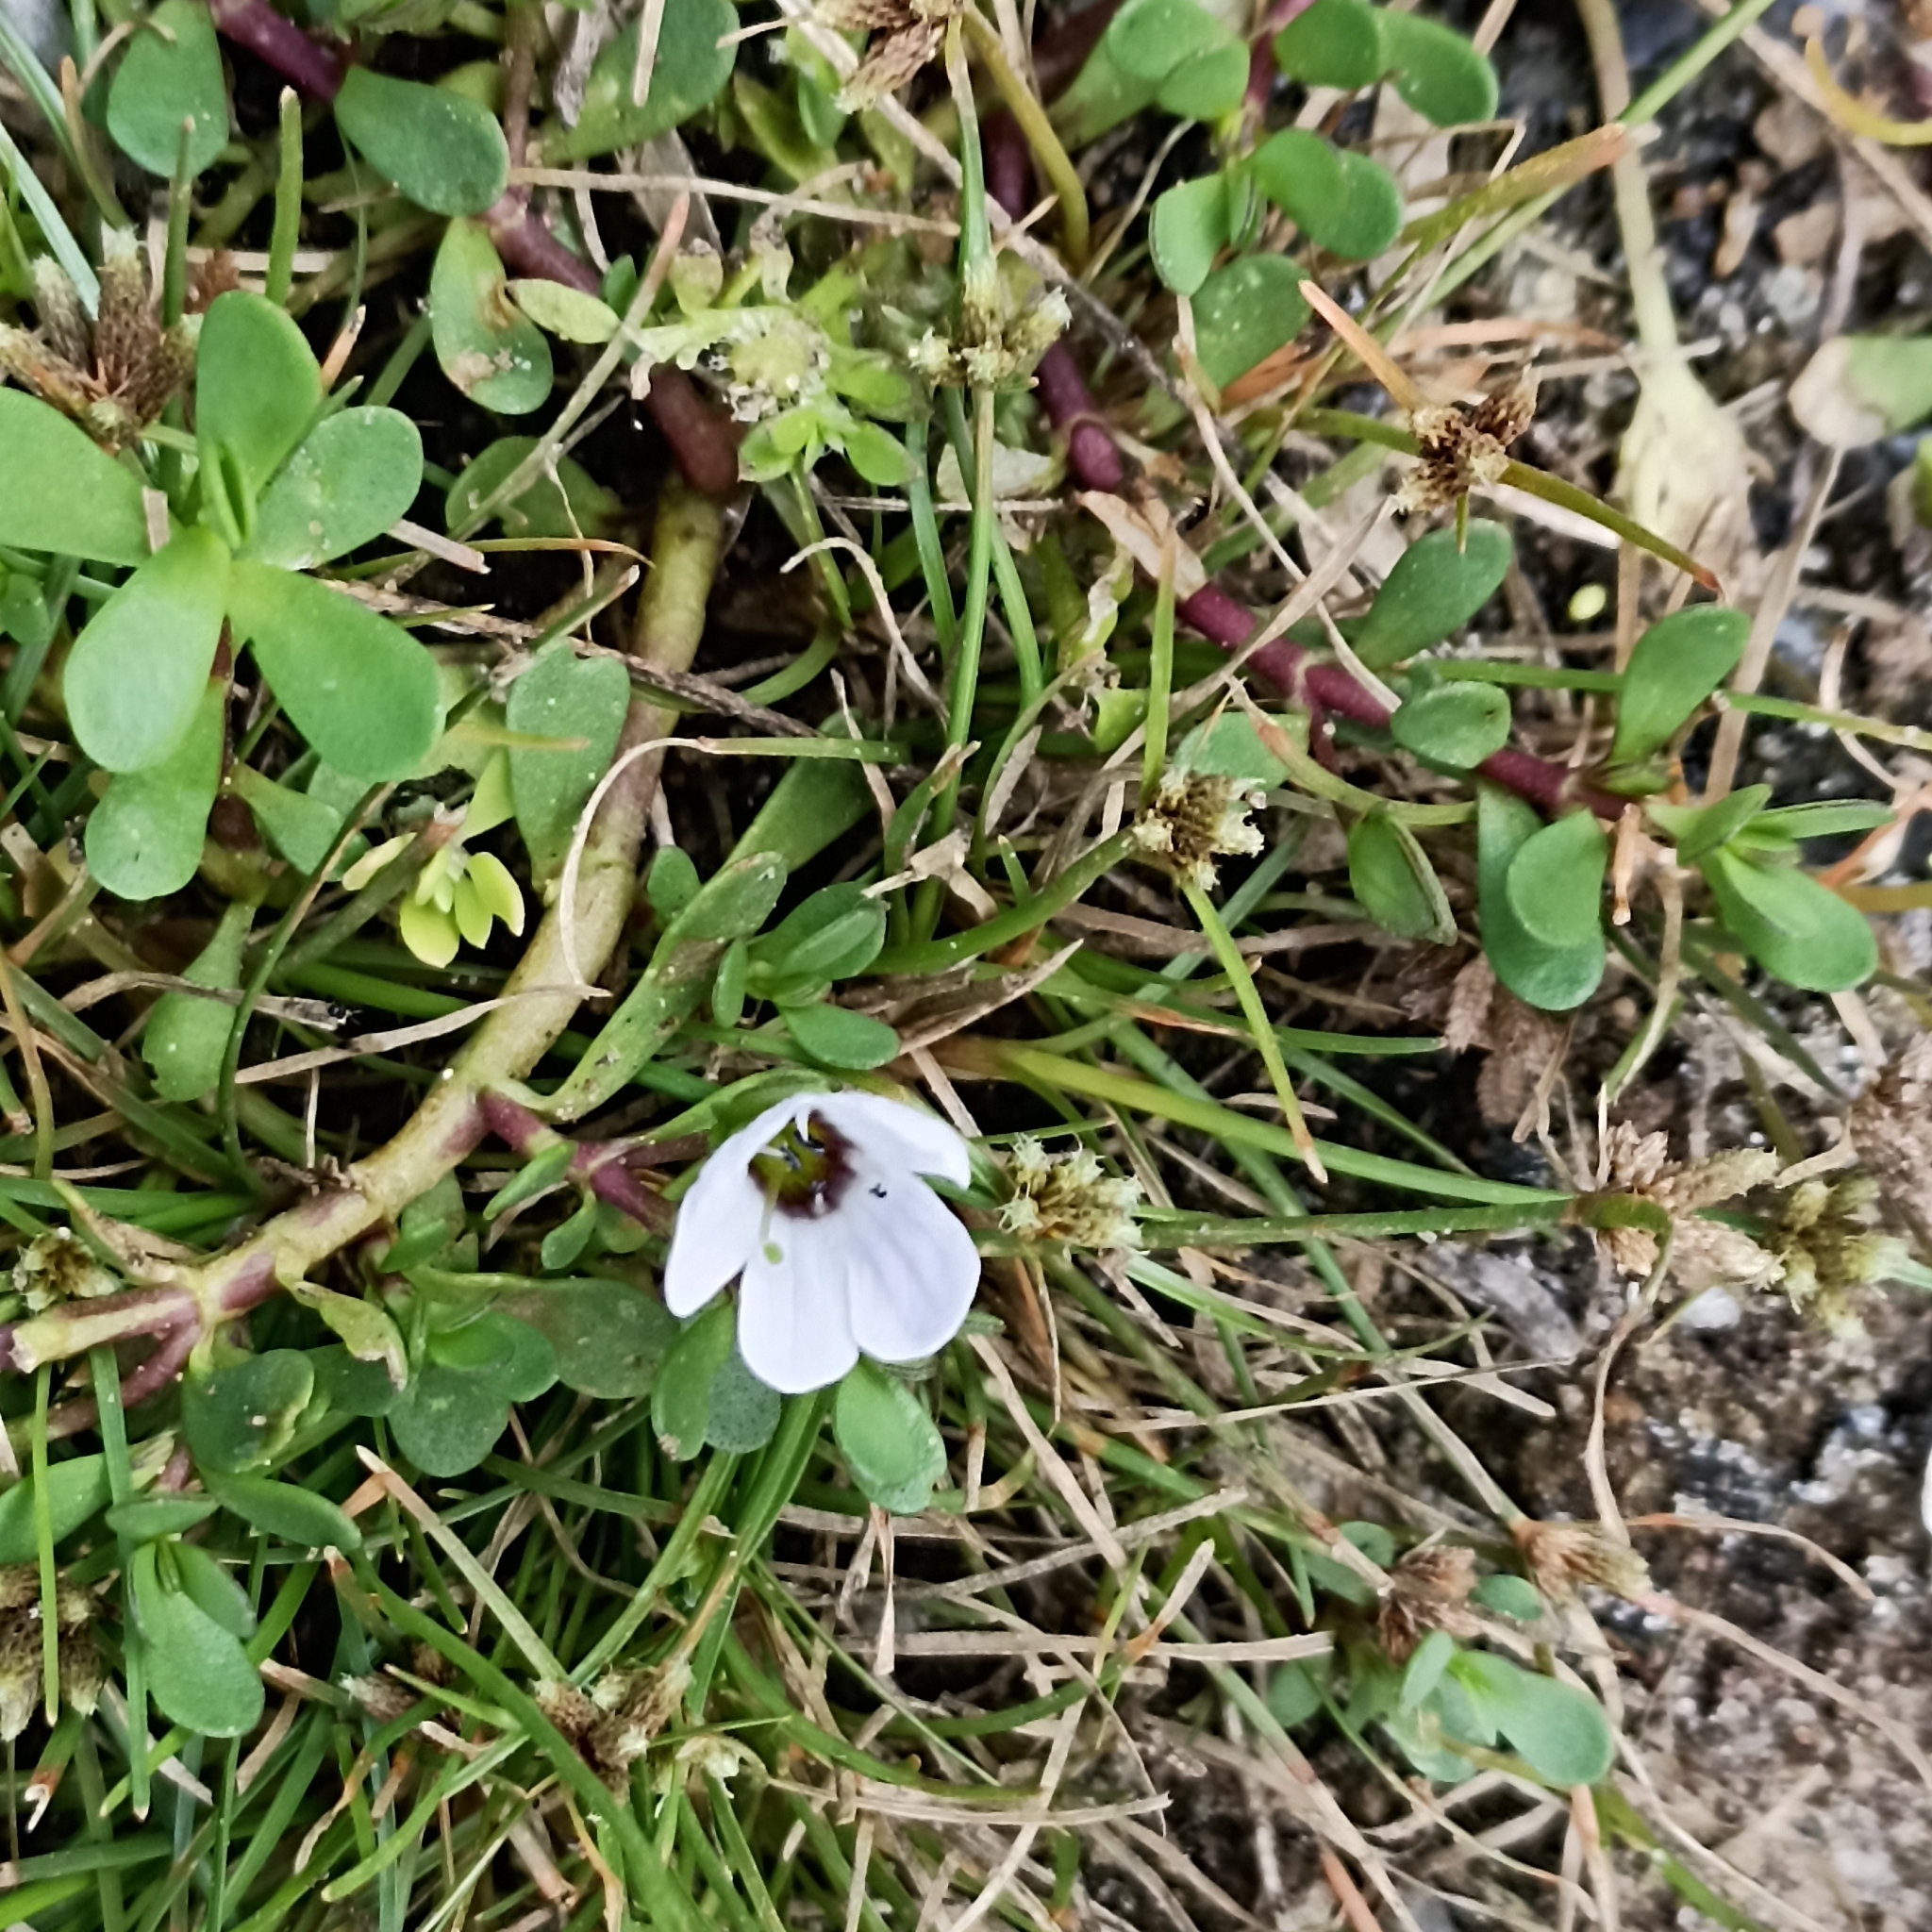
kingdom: Plantae
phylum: Tracheophyta
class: Magnoliopsida
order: Lamiales
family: Plantaginaceae
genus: Bacopa
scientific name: Bacopa monnieri
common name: Indian-pennywort
